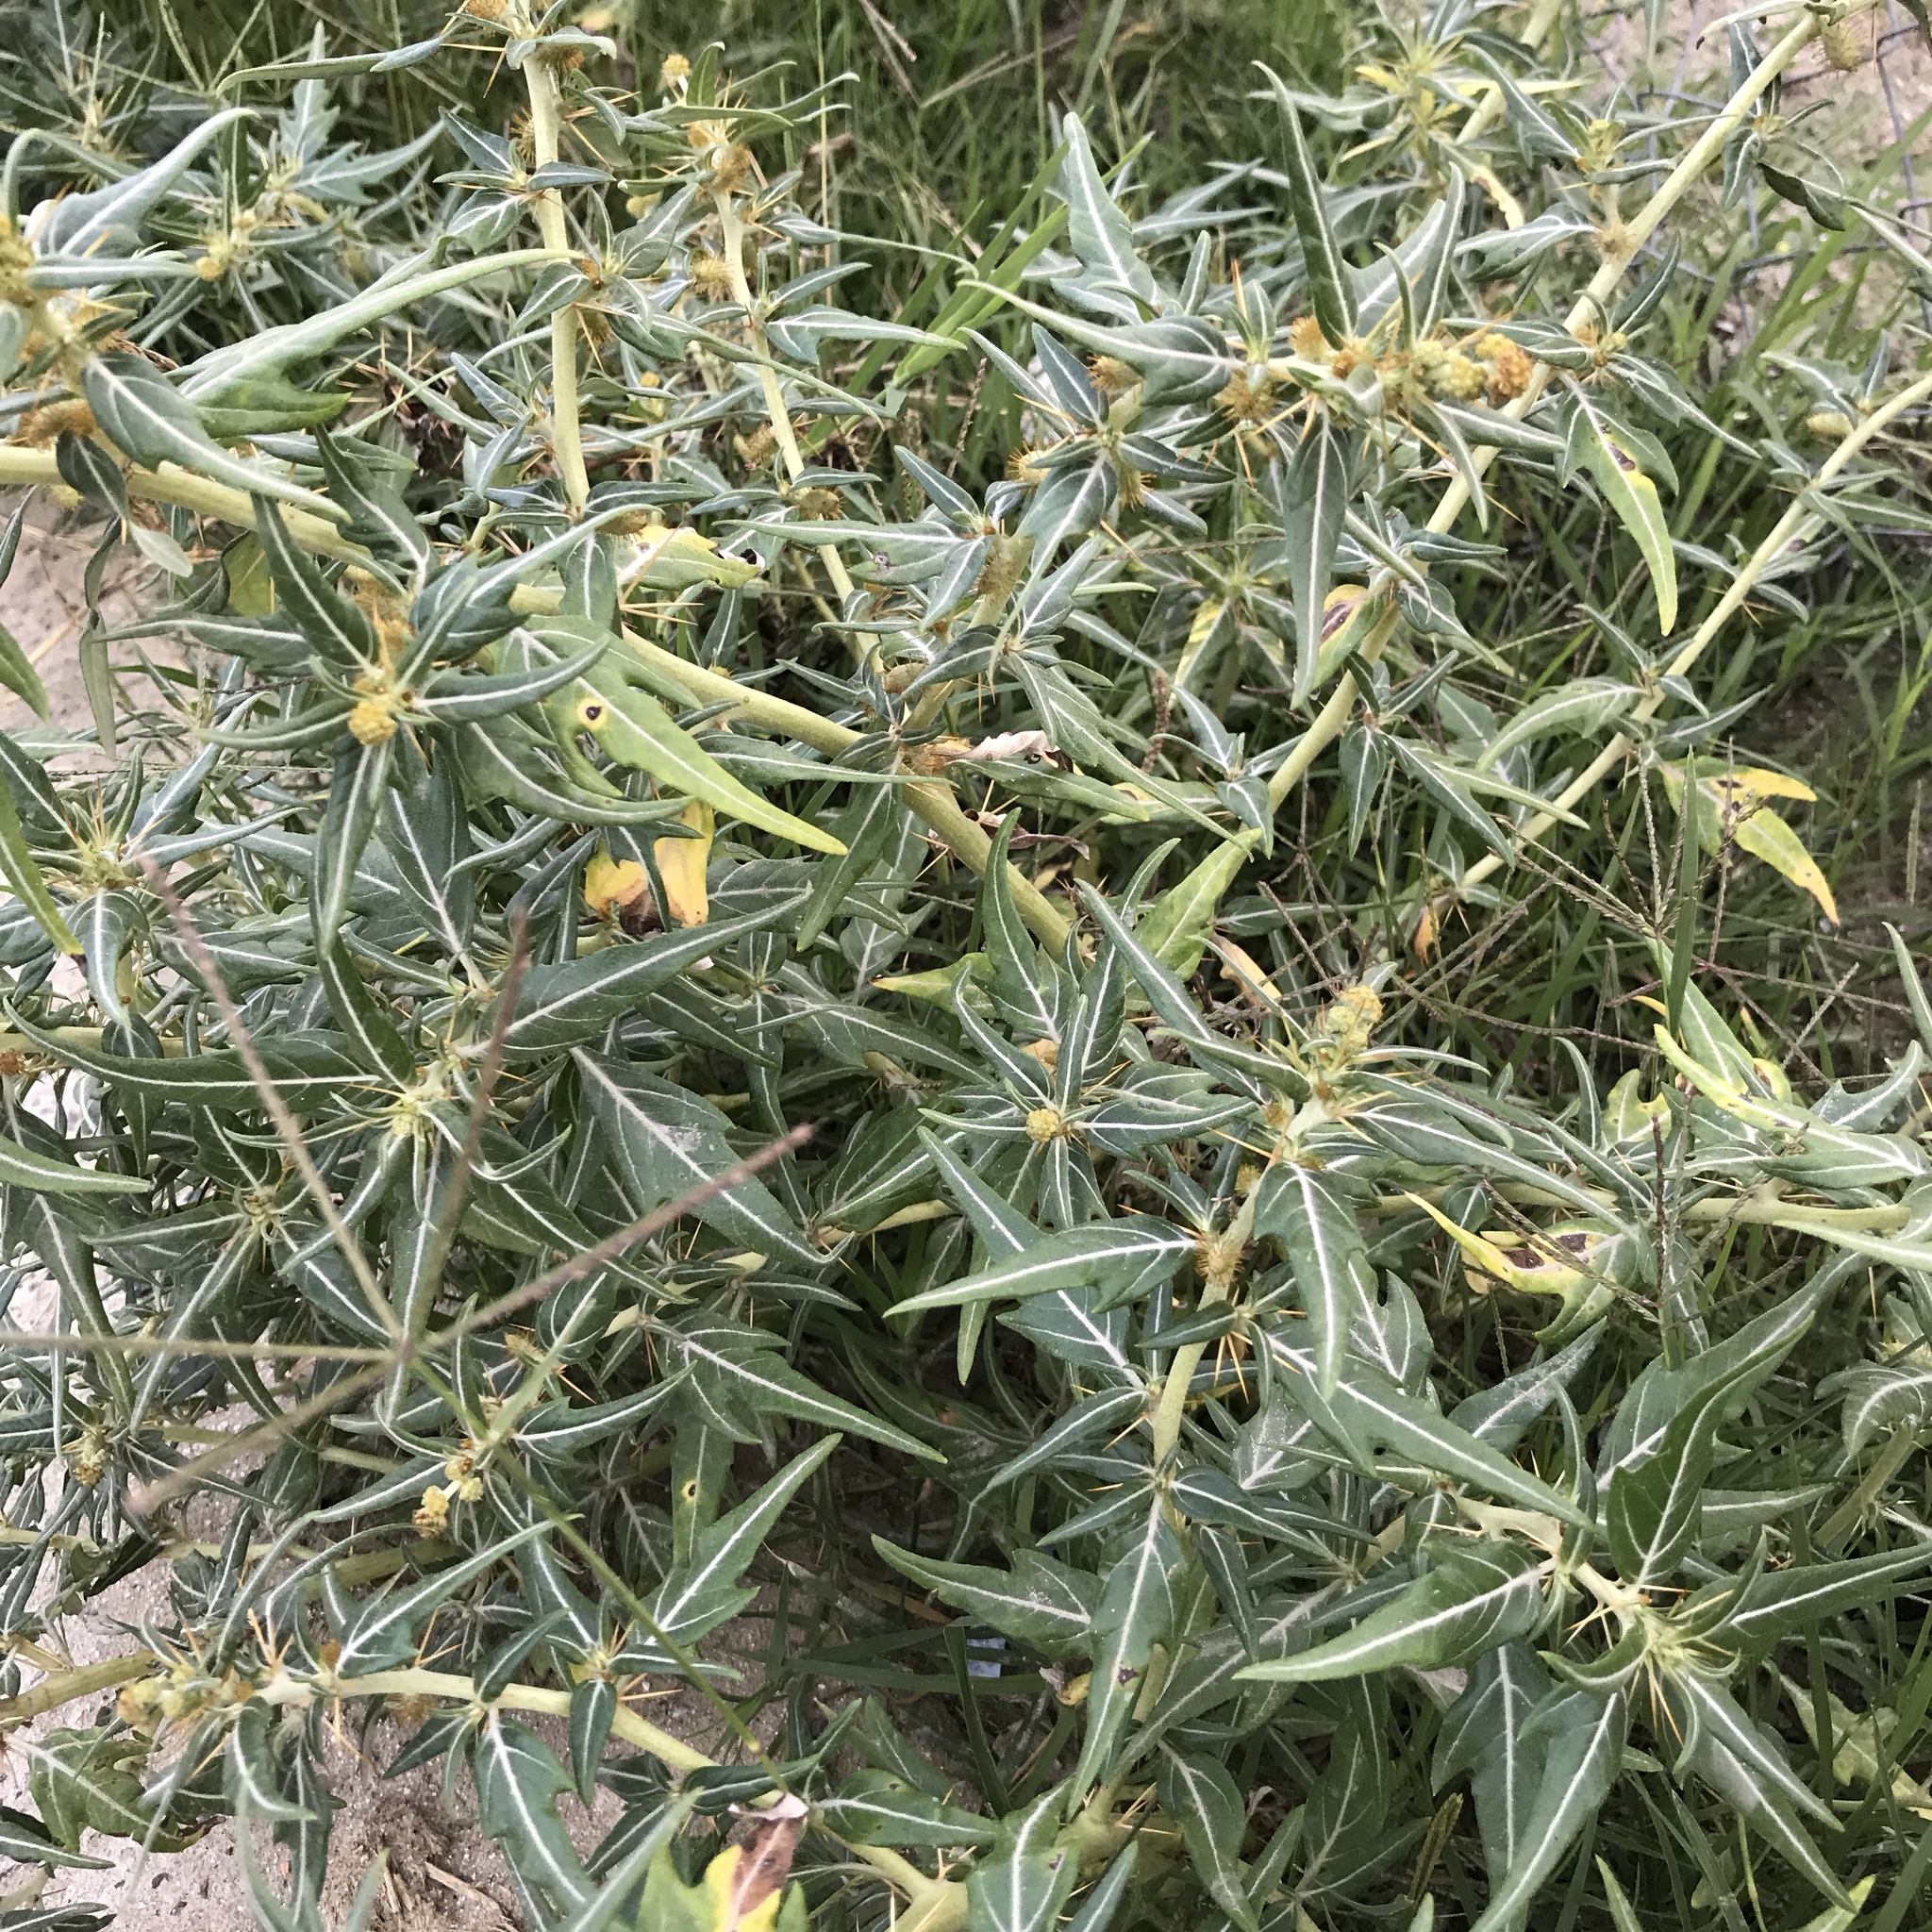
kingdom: Plantae
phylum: Tracheophyta
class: Magnoliopsida
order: Asterales
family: Asteraceae
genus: Xanthium
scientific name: Xanthium spinosum
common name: Spiny cocklebur
